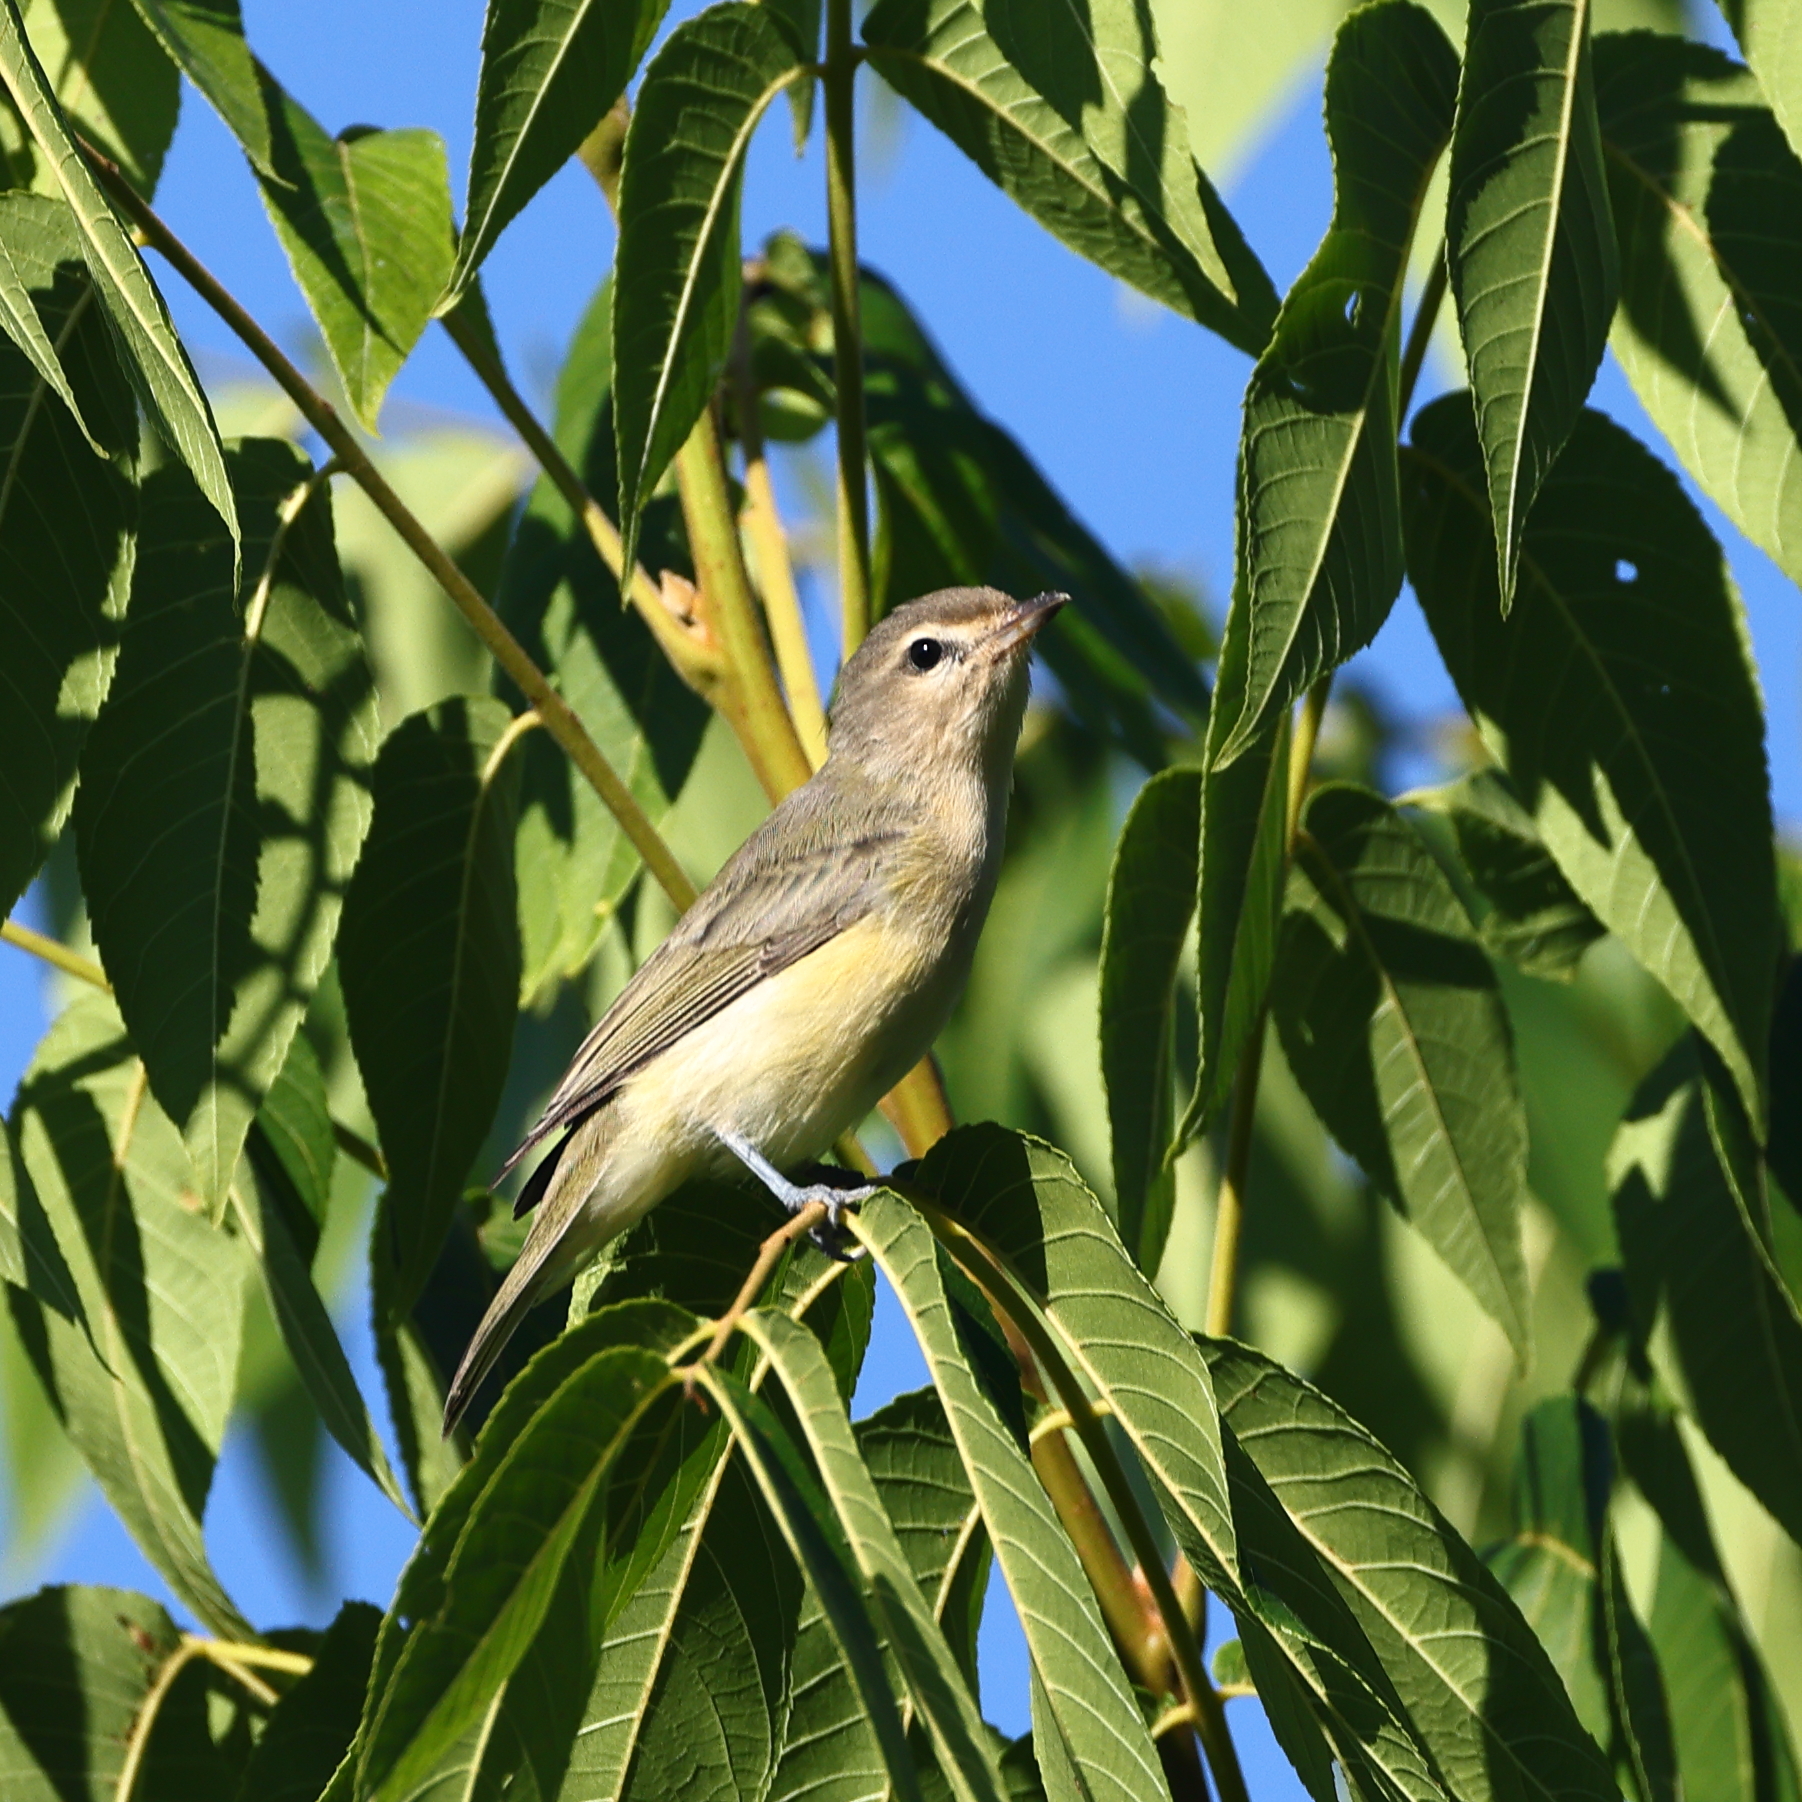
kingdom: Animalia
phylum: Chordata
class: Aves
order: Passeriformes
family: Vireonidae
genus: Vireo
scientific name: Vireo gilvus
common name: Warbling vireo
